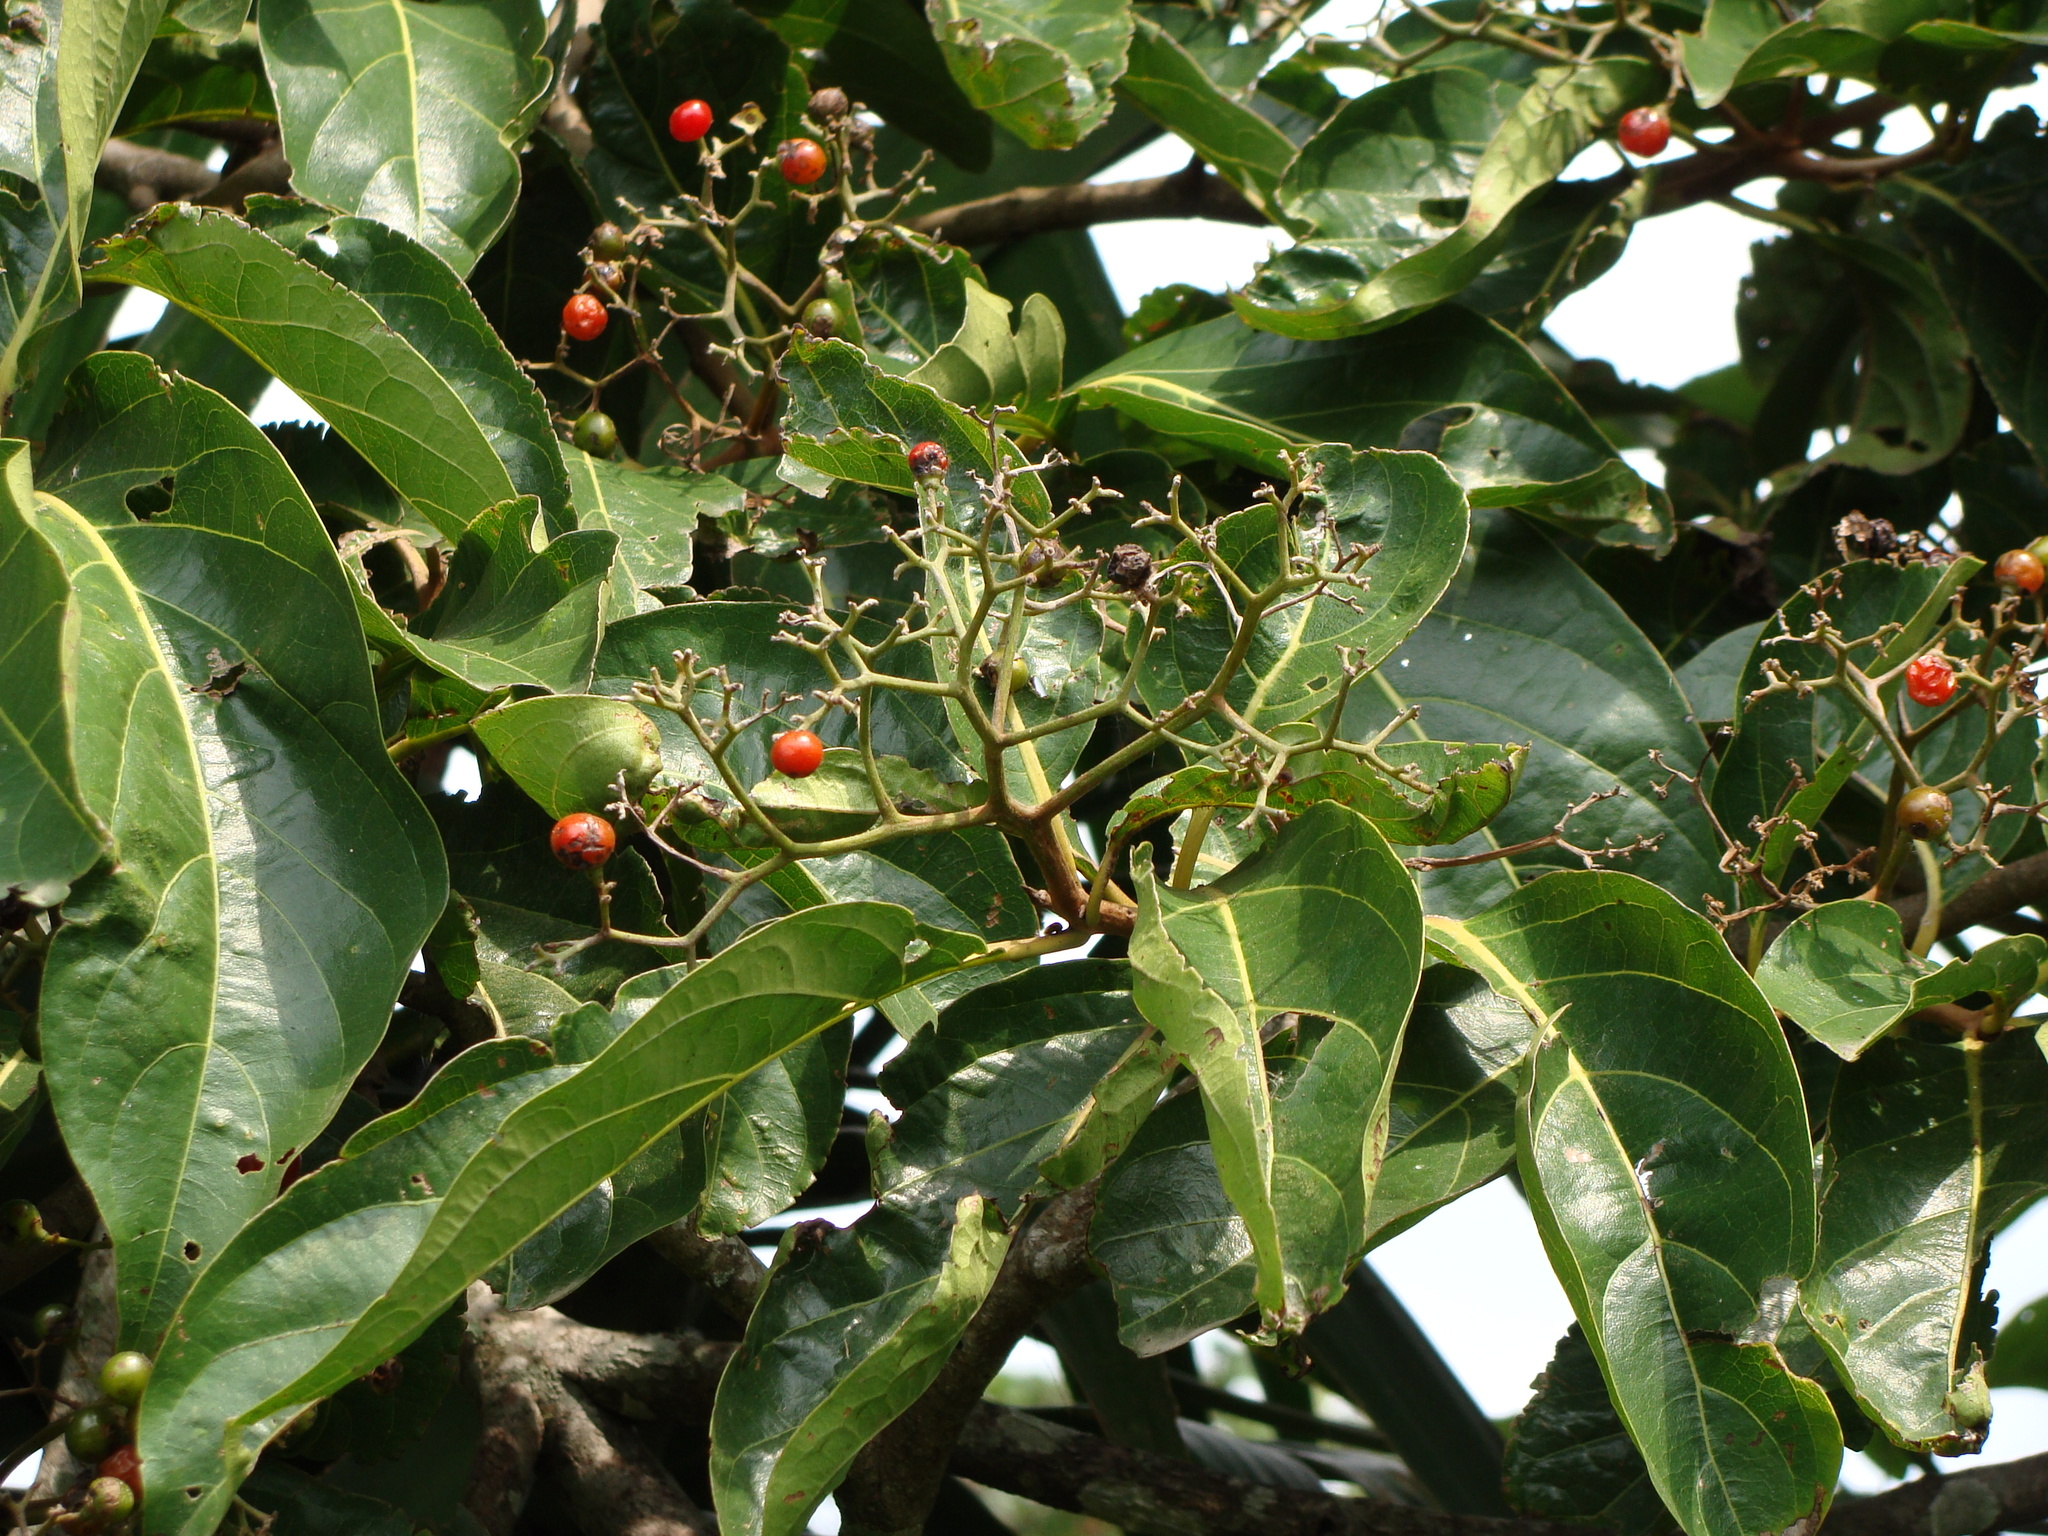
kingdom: Plantae
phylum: Tracheophyta
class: Magnoliopsida
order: Boraginales
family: Cordiaceae
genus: Cordia
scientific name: Cordia collococca
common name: Clammy cherry
